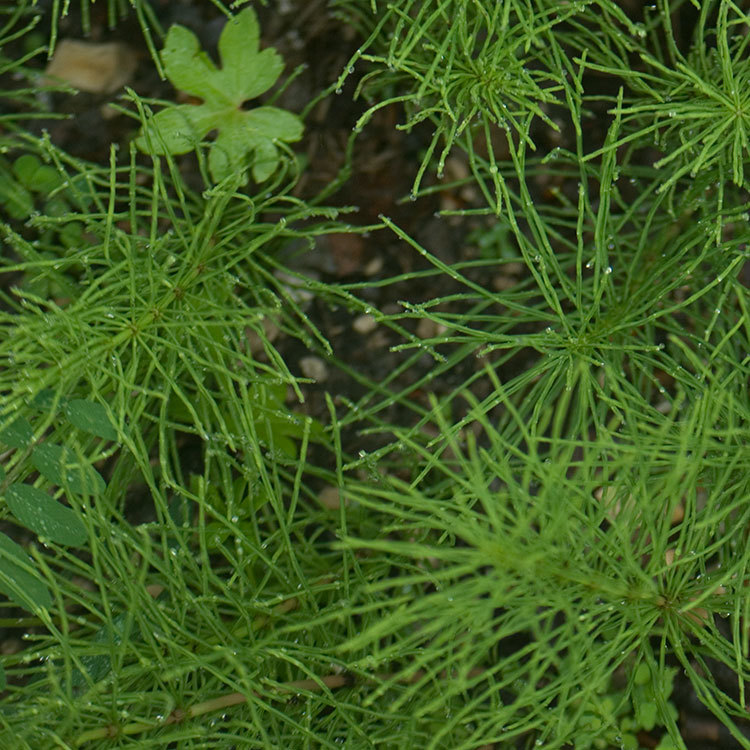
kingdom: Plantae
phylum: Tracheophyta
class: Polypodiopsida
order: Equisetales
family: Equisetaceae
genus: Equisetum
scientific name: Equisetum arvense
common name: Field horsetail
